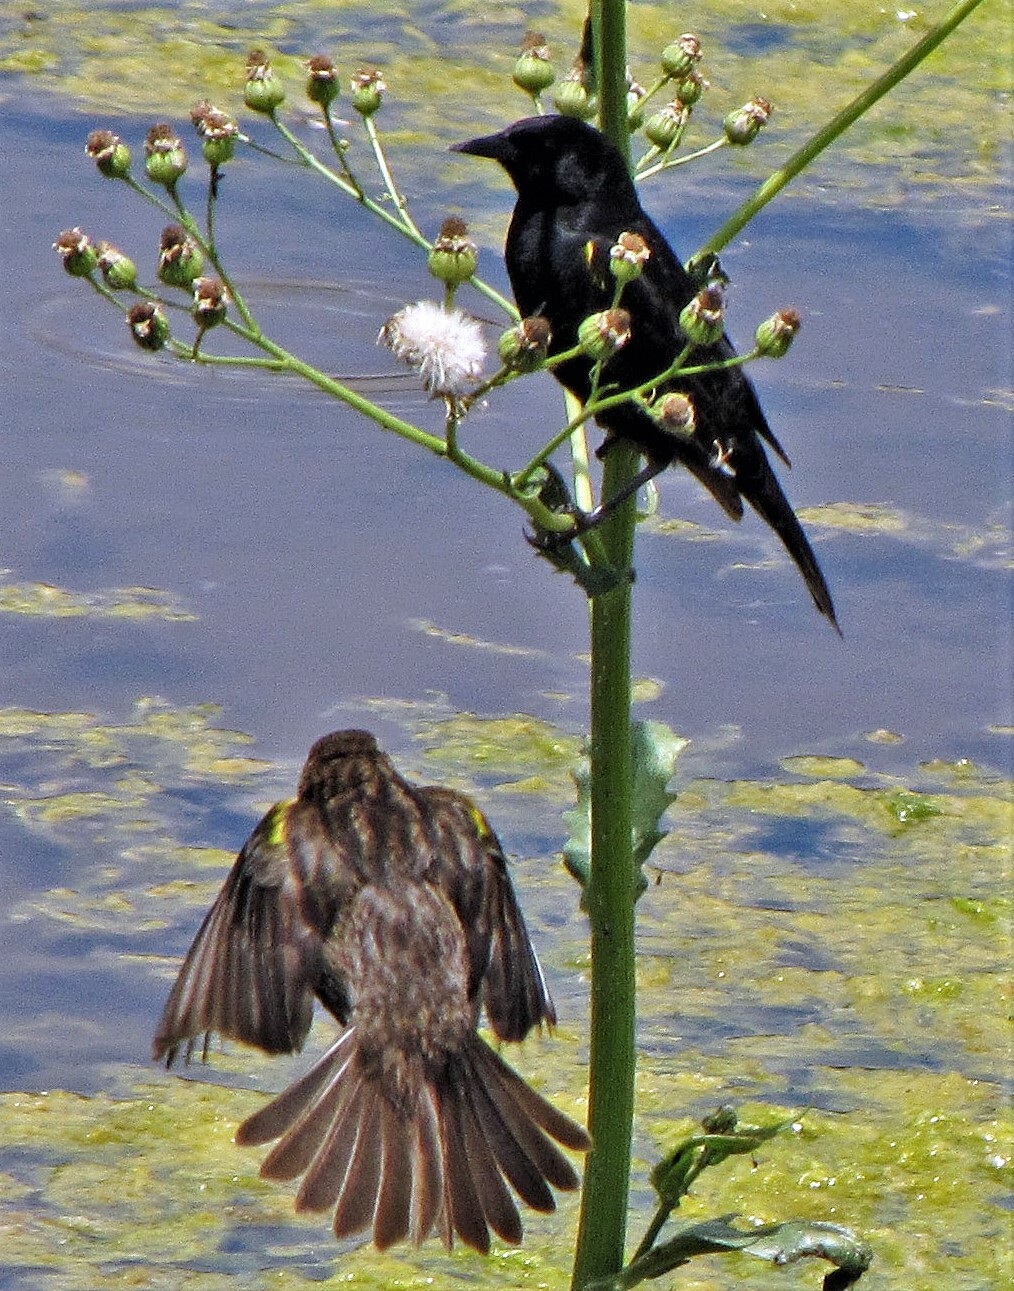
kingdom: Animalia
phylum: Chordata
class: Aves
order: Passeriformes
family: Icteridae
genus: Agelasticus
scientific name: Agelasticus thilius
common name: Yellow-winged blackbird
